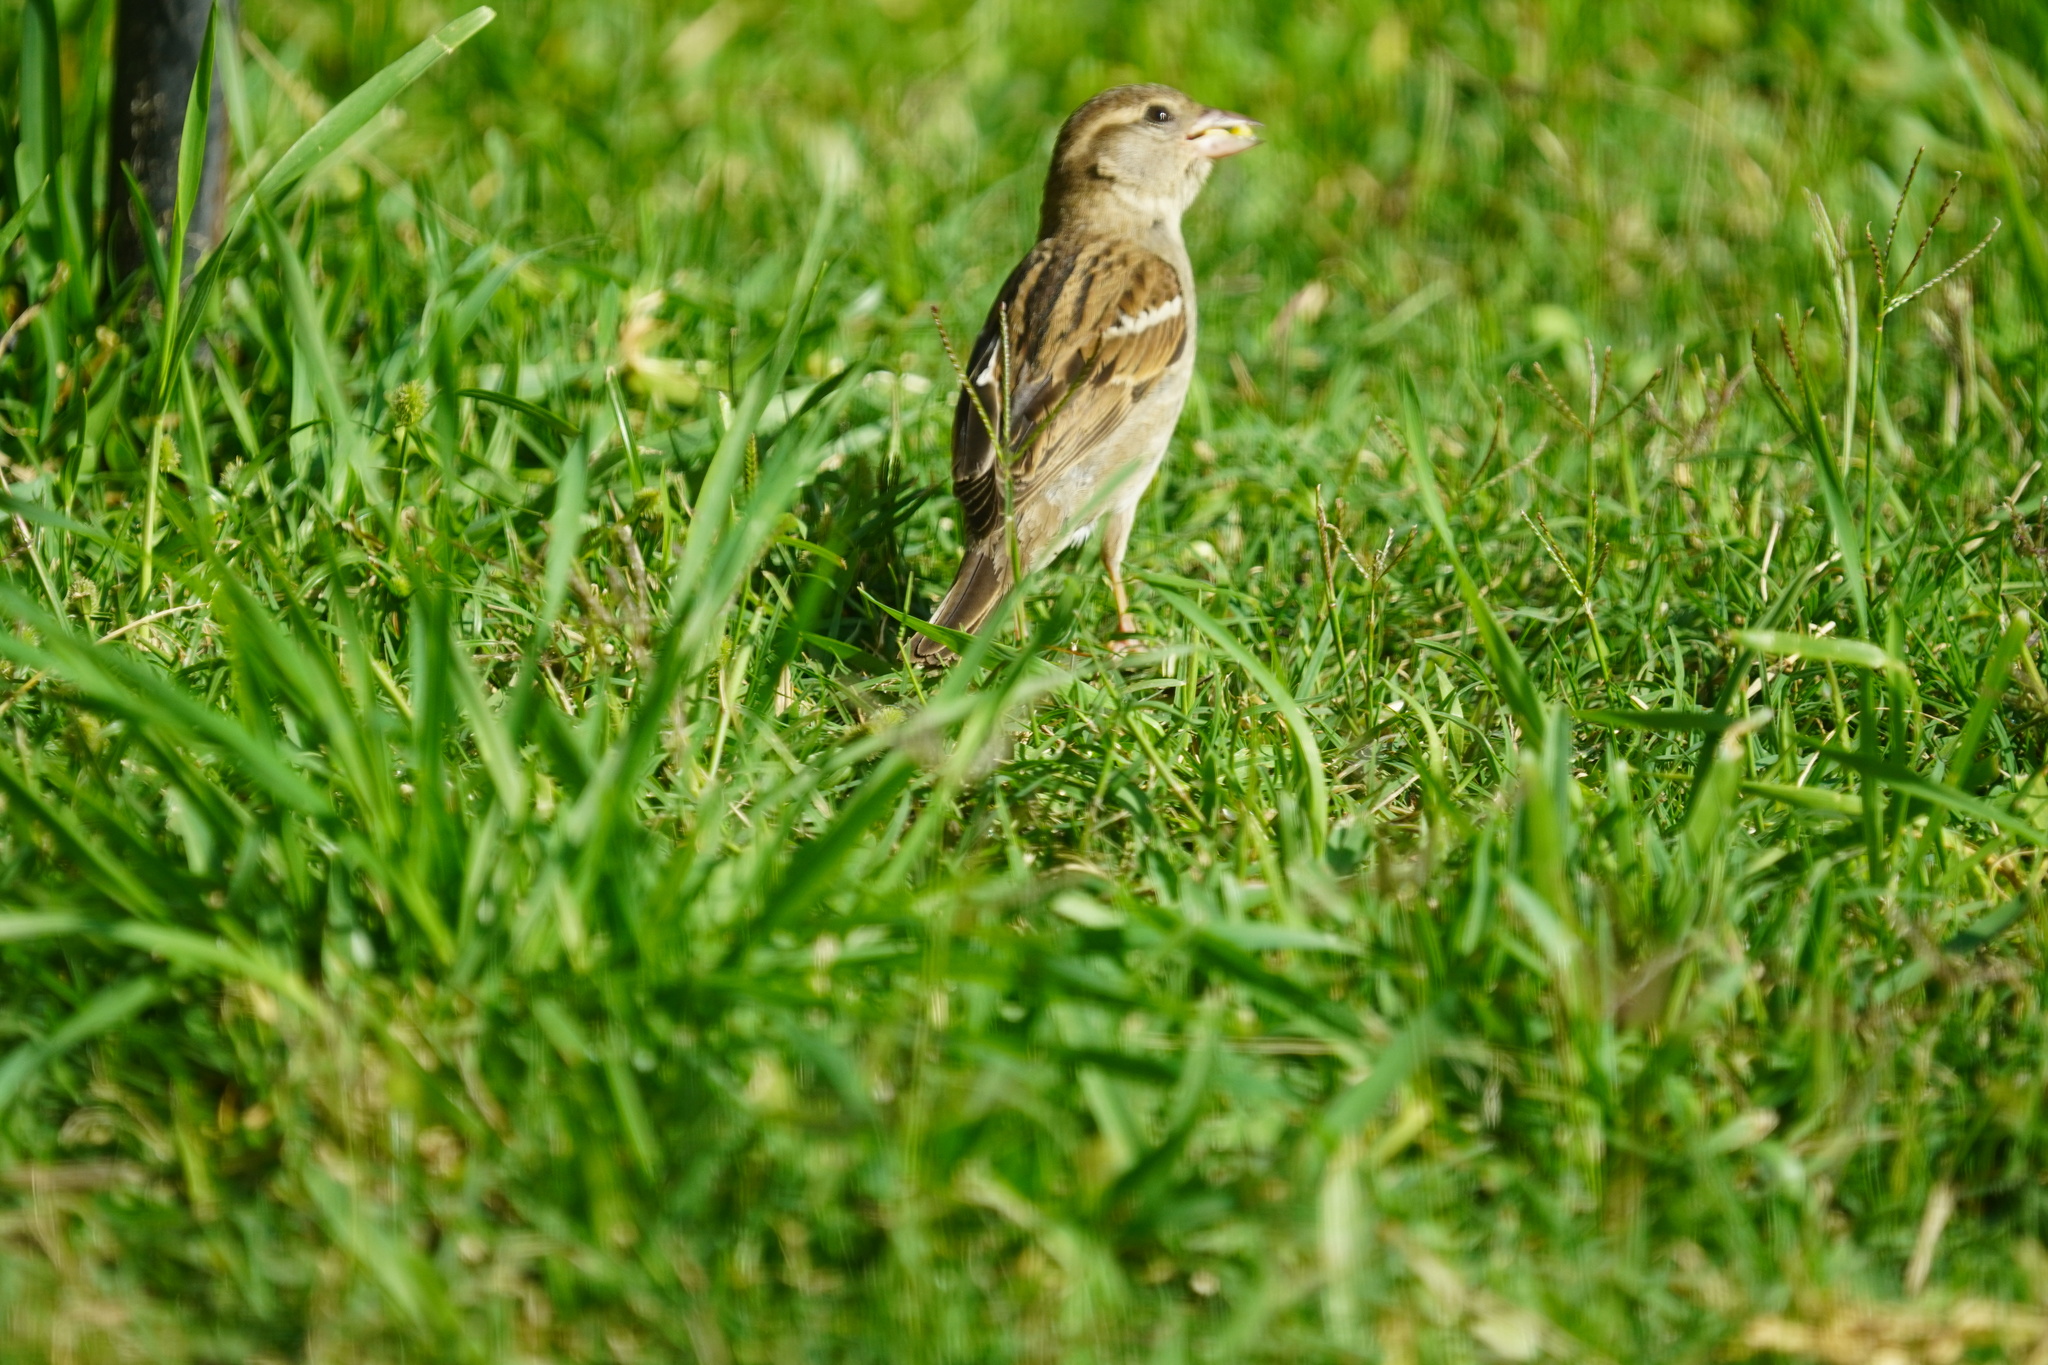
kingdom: Animalia
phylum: Chordata
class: Aves
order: Passeriformes
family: Passeridae
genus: Passer
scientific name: Passer domesticus
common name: House sparrow
